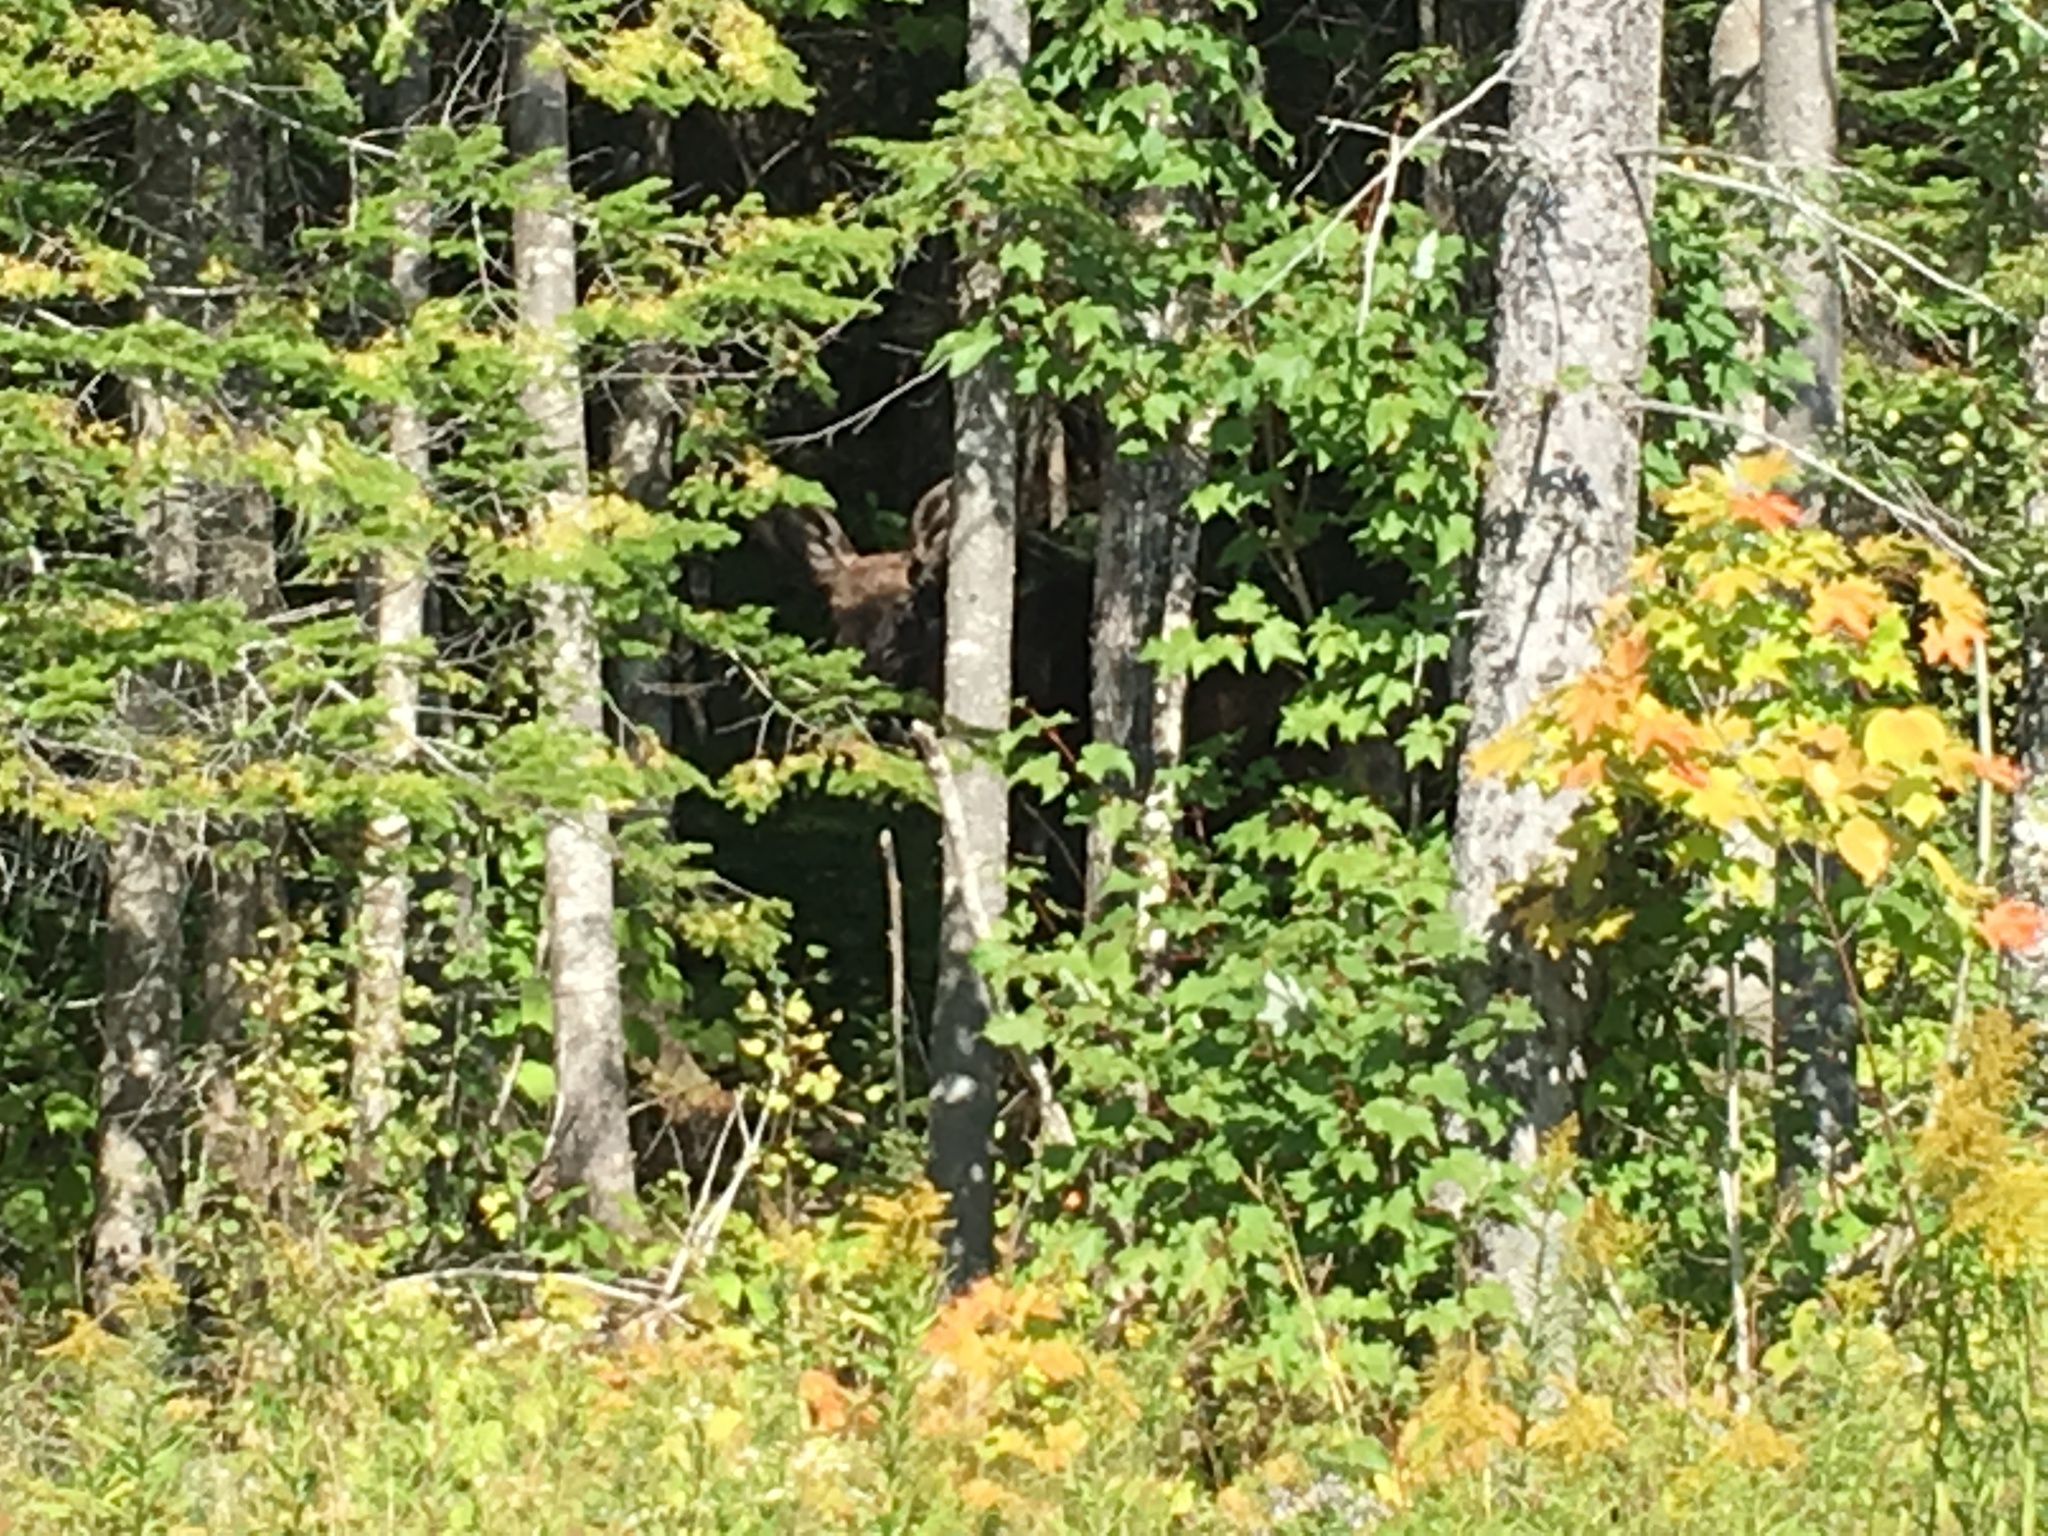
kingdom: Animalia
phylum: Chordata
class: Mammalia
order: Artiodactyla
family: Cervidae
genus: Alces
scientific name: Alces alces
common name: Moose
